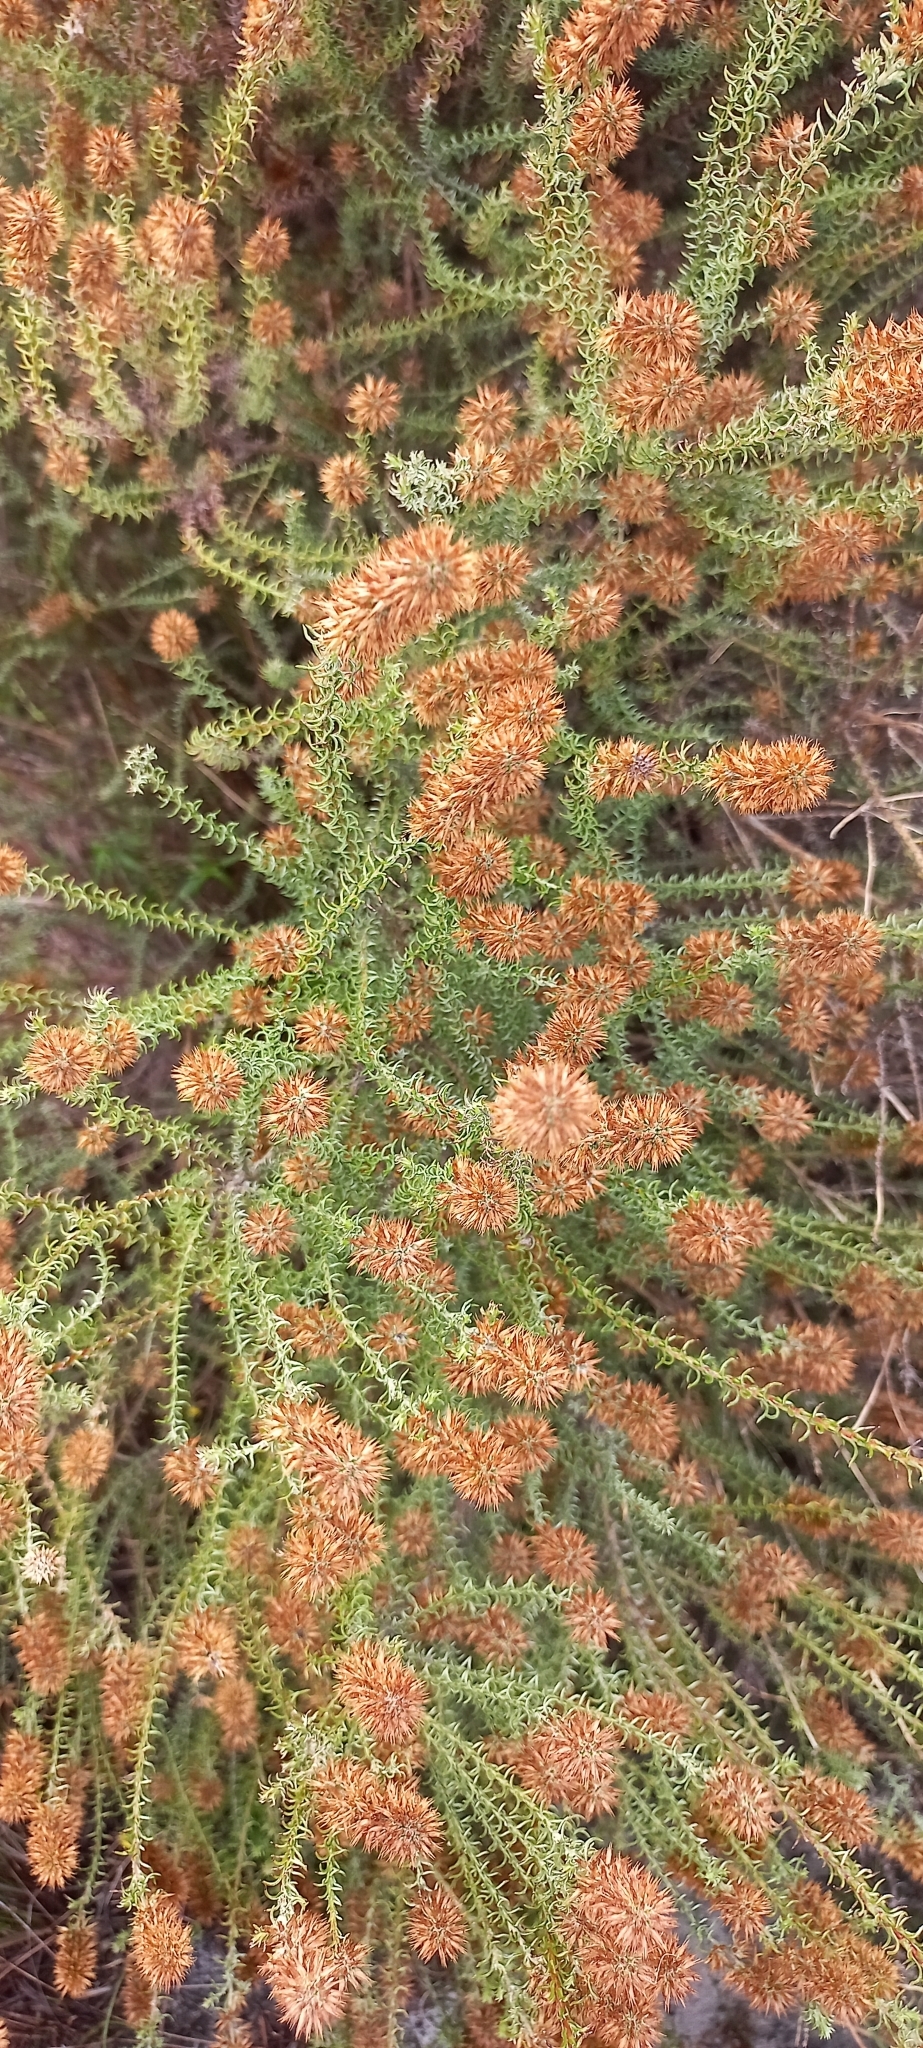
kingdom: Plantae
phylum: Tracheophyta
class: Magnoliopsida
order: Asterales
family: Asteraceae
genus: Seriphium
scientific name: Seriphium cinereum
